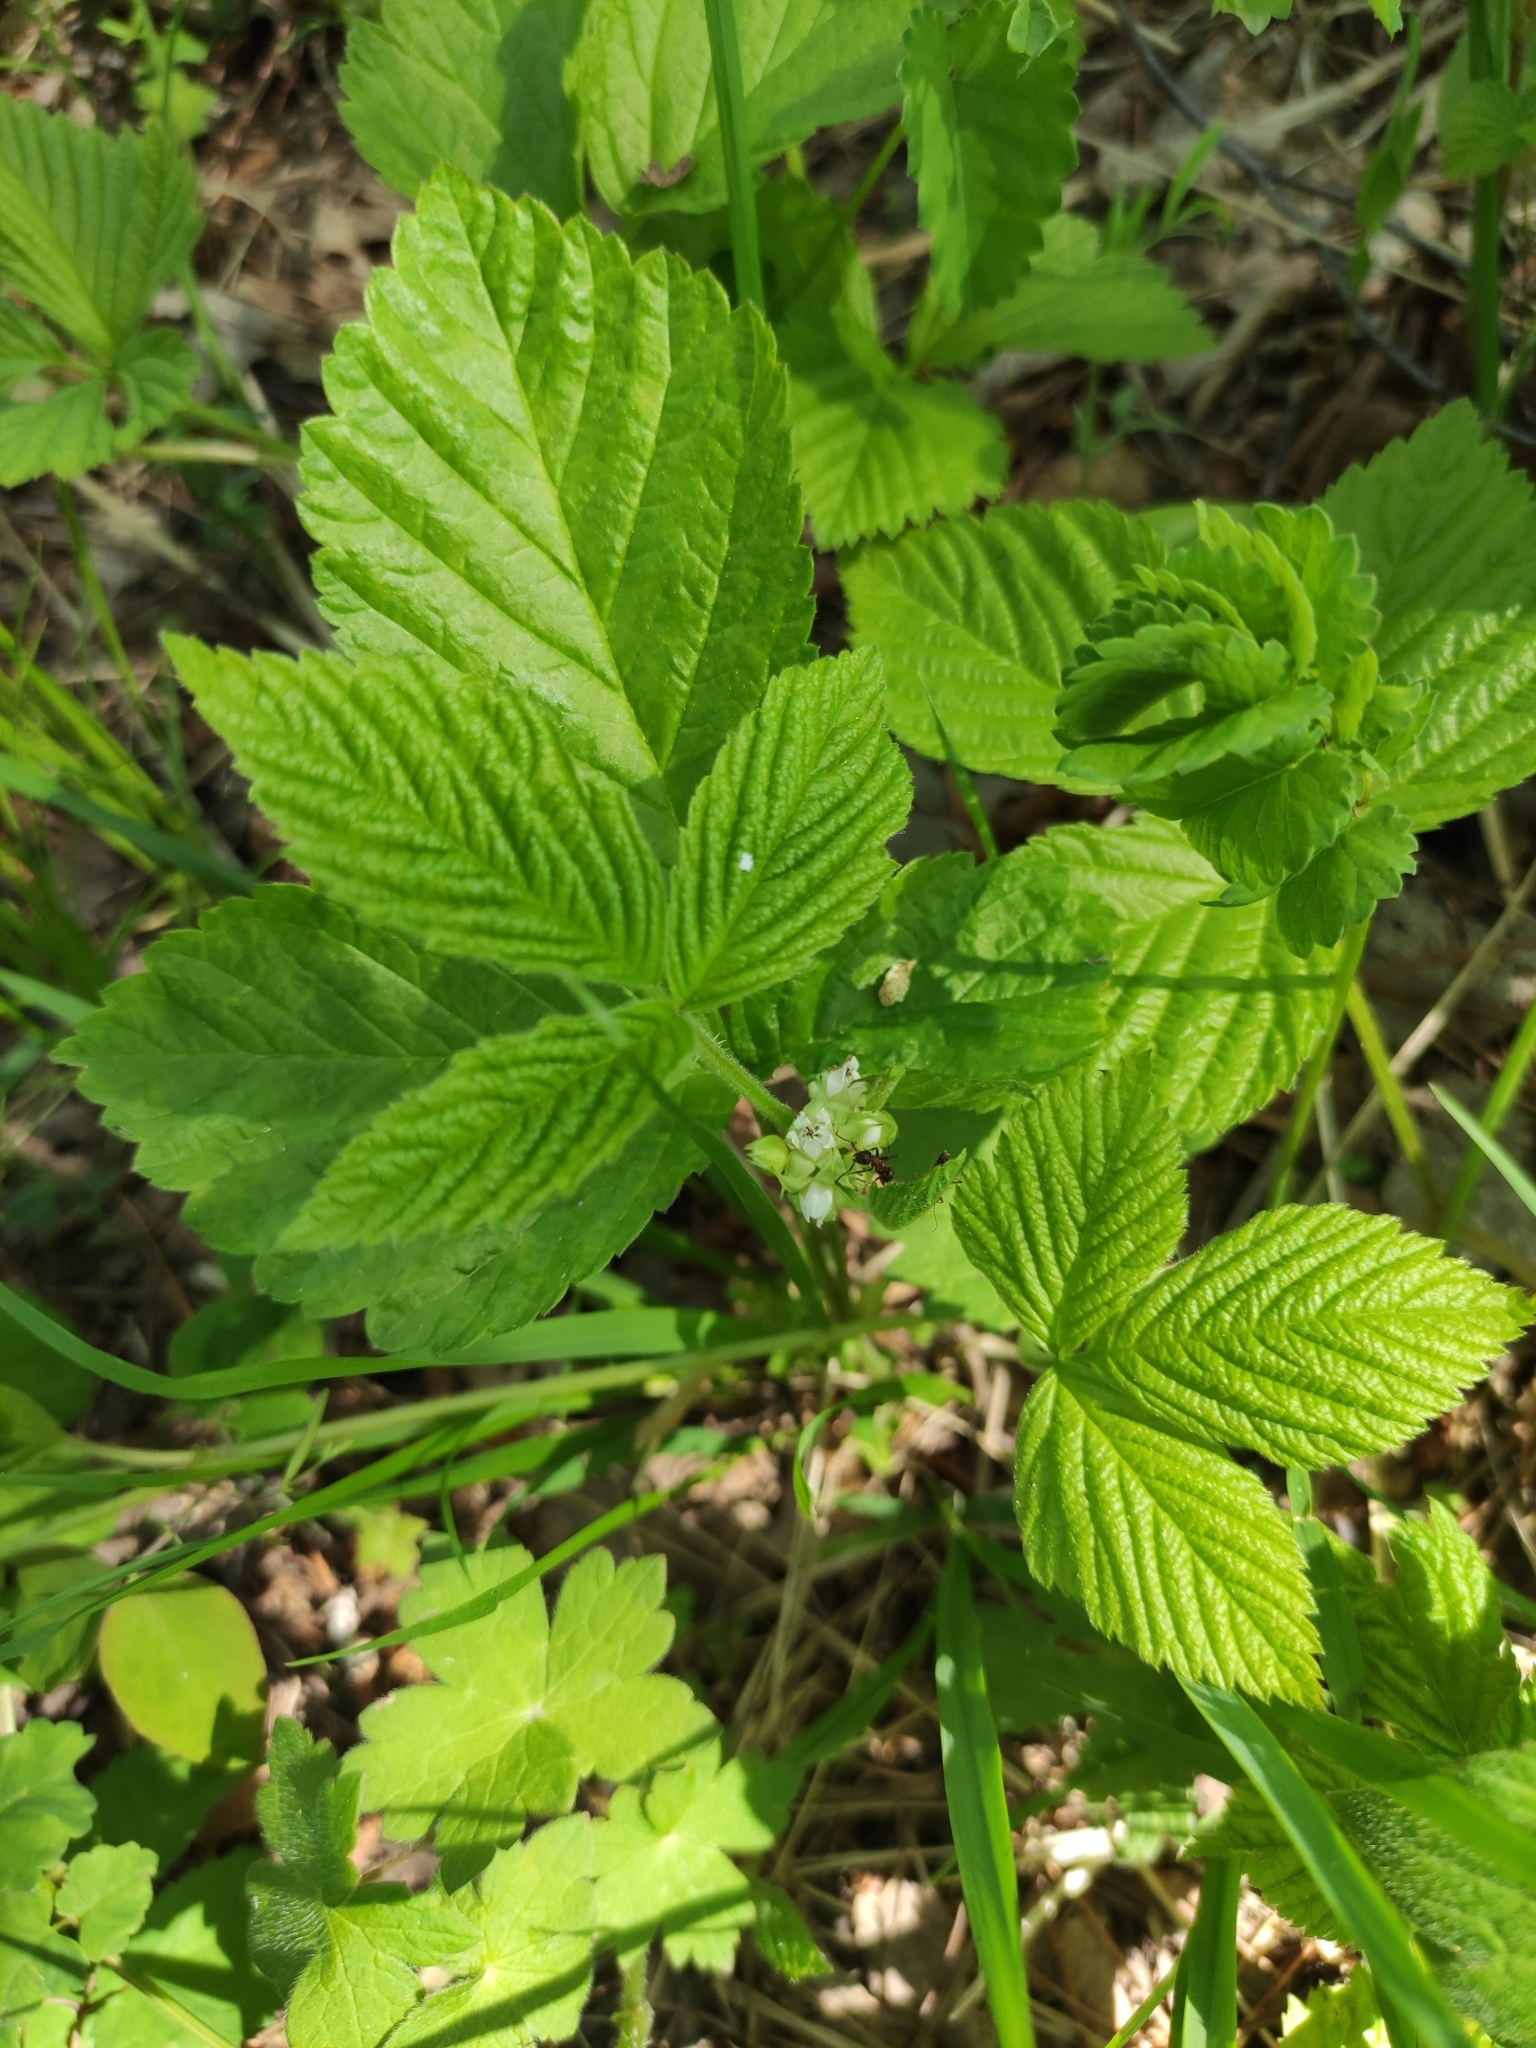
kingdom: Plantae
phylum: Tracheophyta
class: Magnoliopsida
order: Rosales
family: Rosaceae
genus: Rubus
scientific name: Rubus saxatilis
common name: Stone bramble
